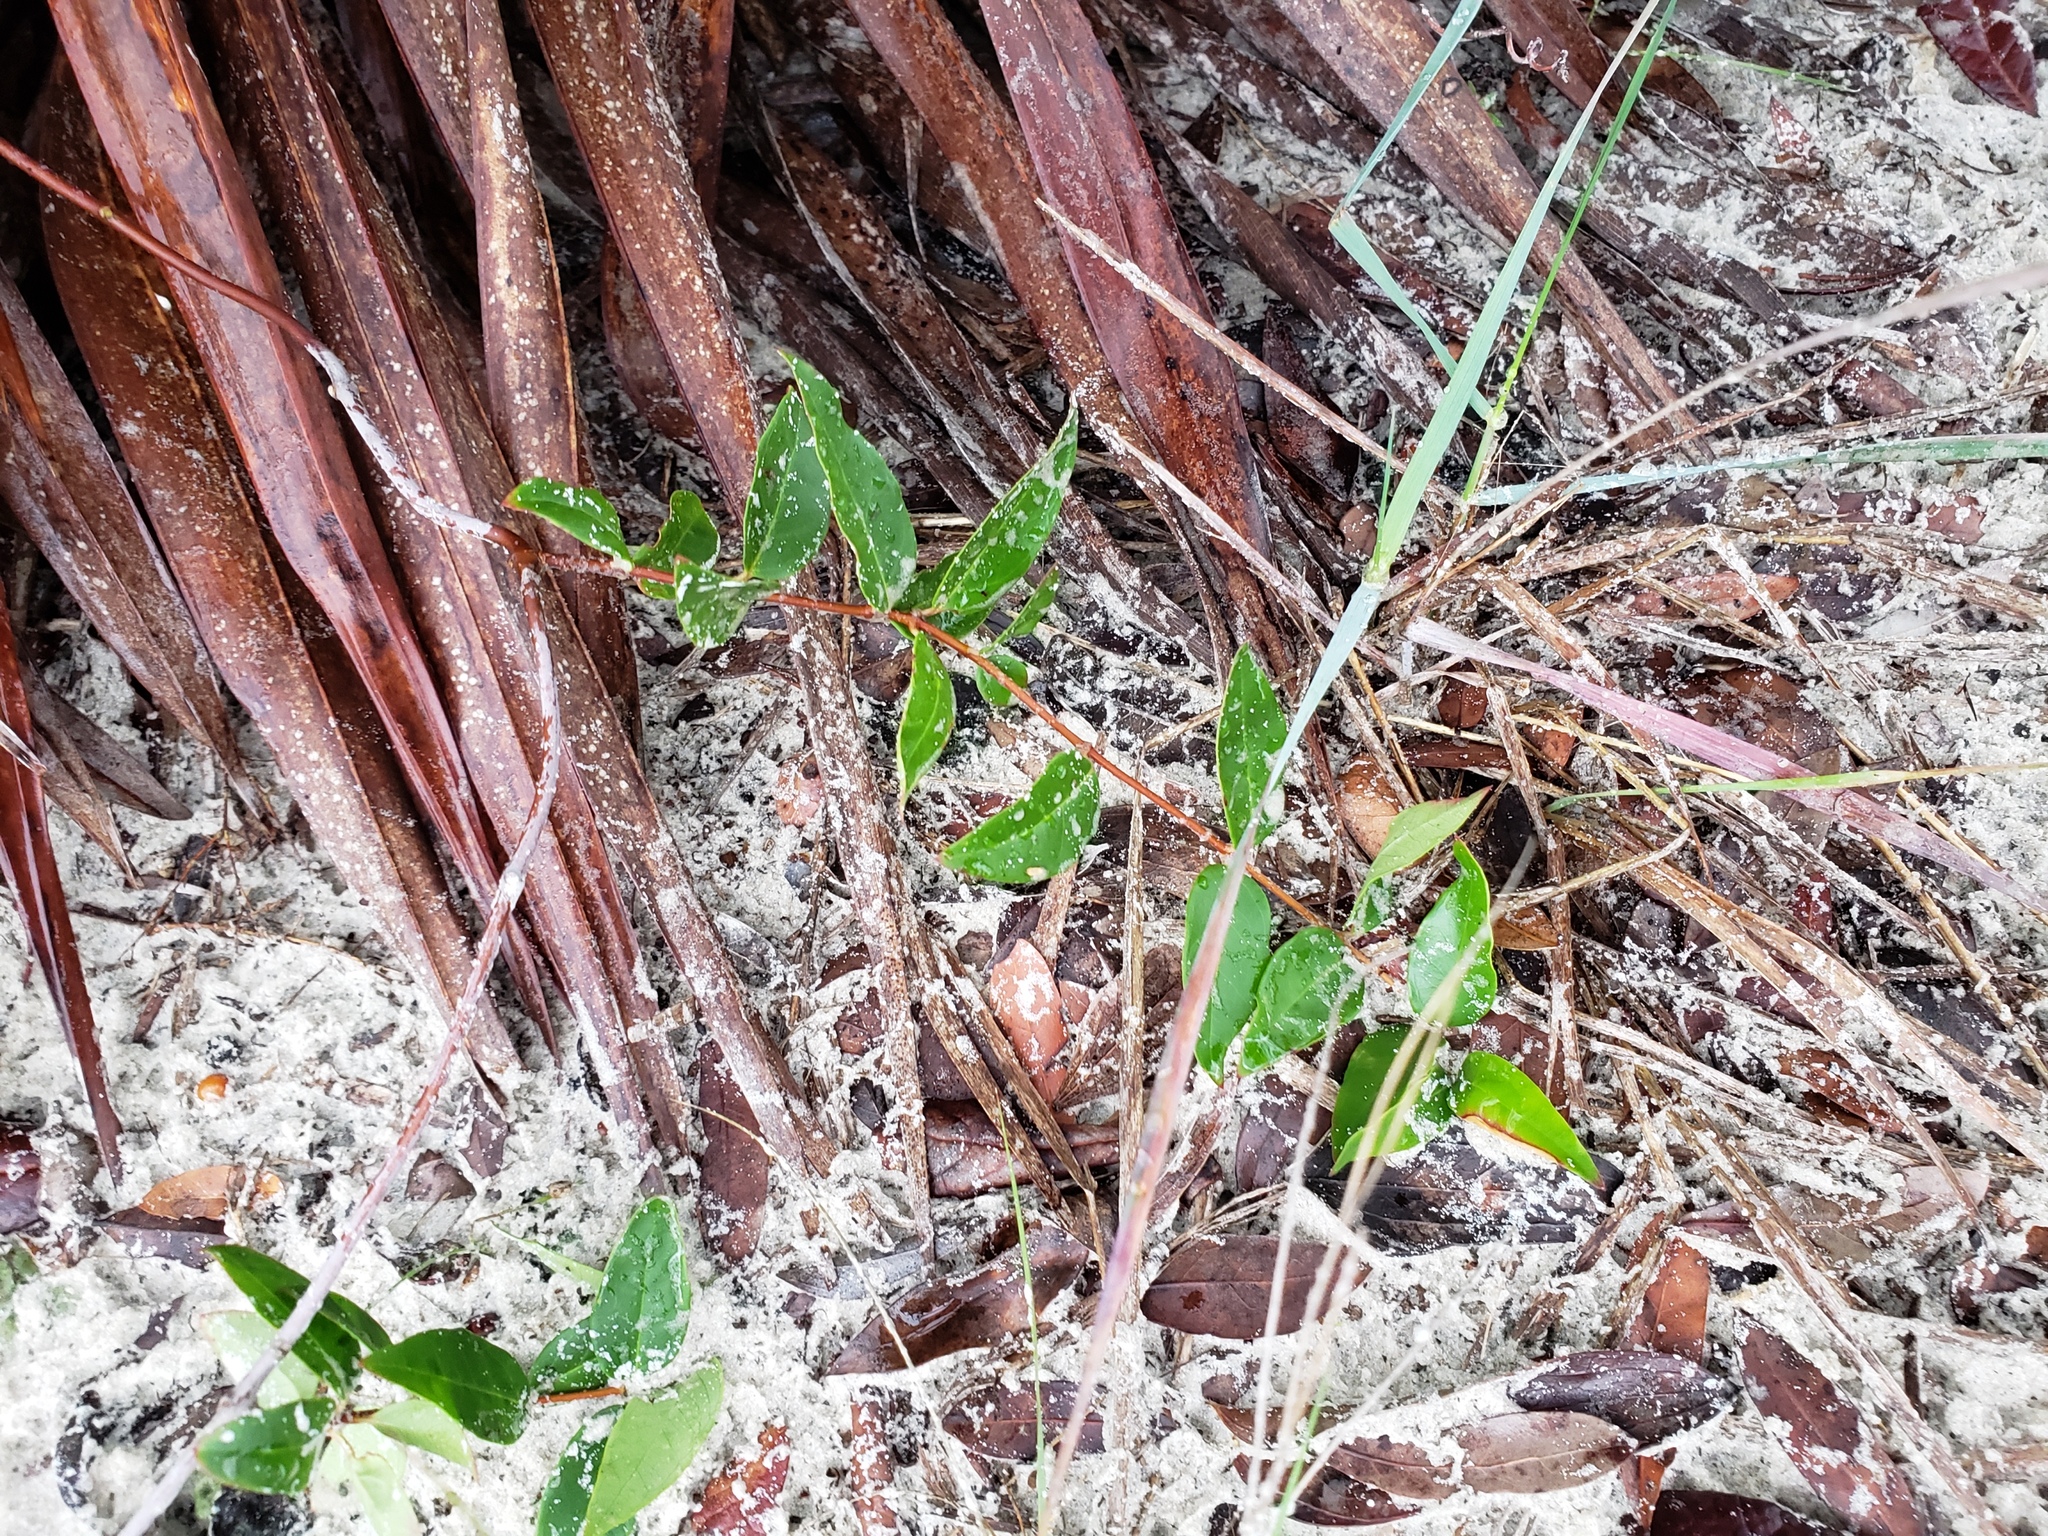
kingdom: Plantae
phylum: Tracheophyta
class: Magnoliopsida
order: Gentianales
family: Gelsemiaceae
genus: Gelsemium
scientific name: Gelsemium sempervirens
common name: Carolina-jasmine
